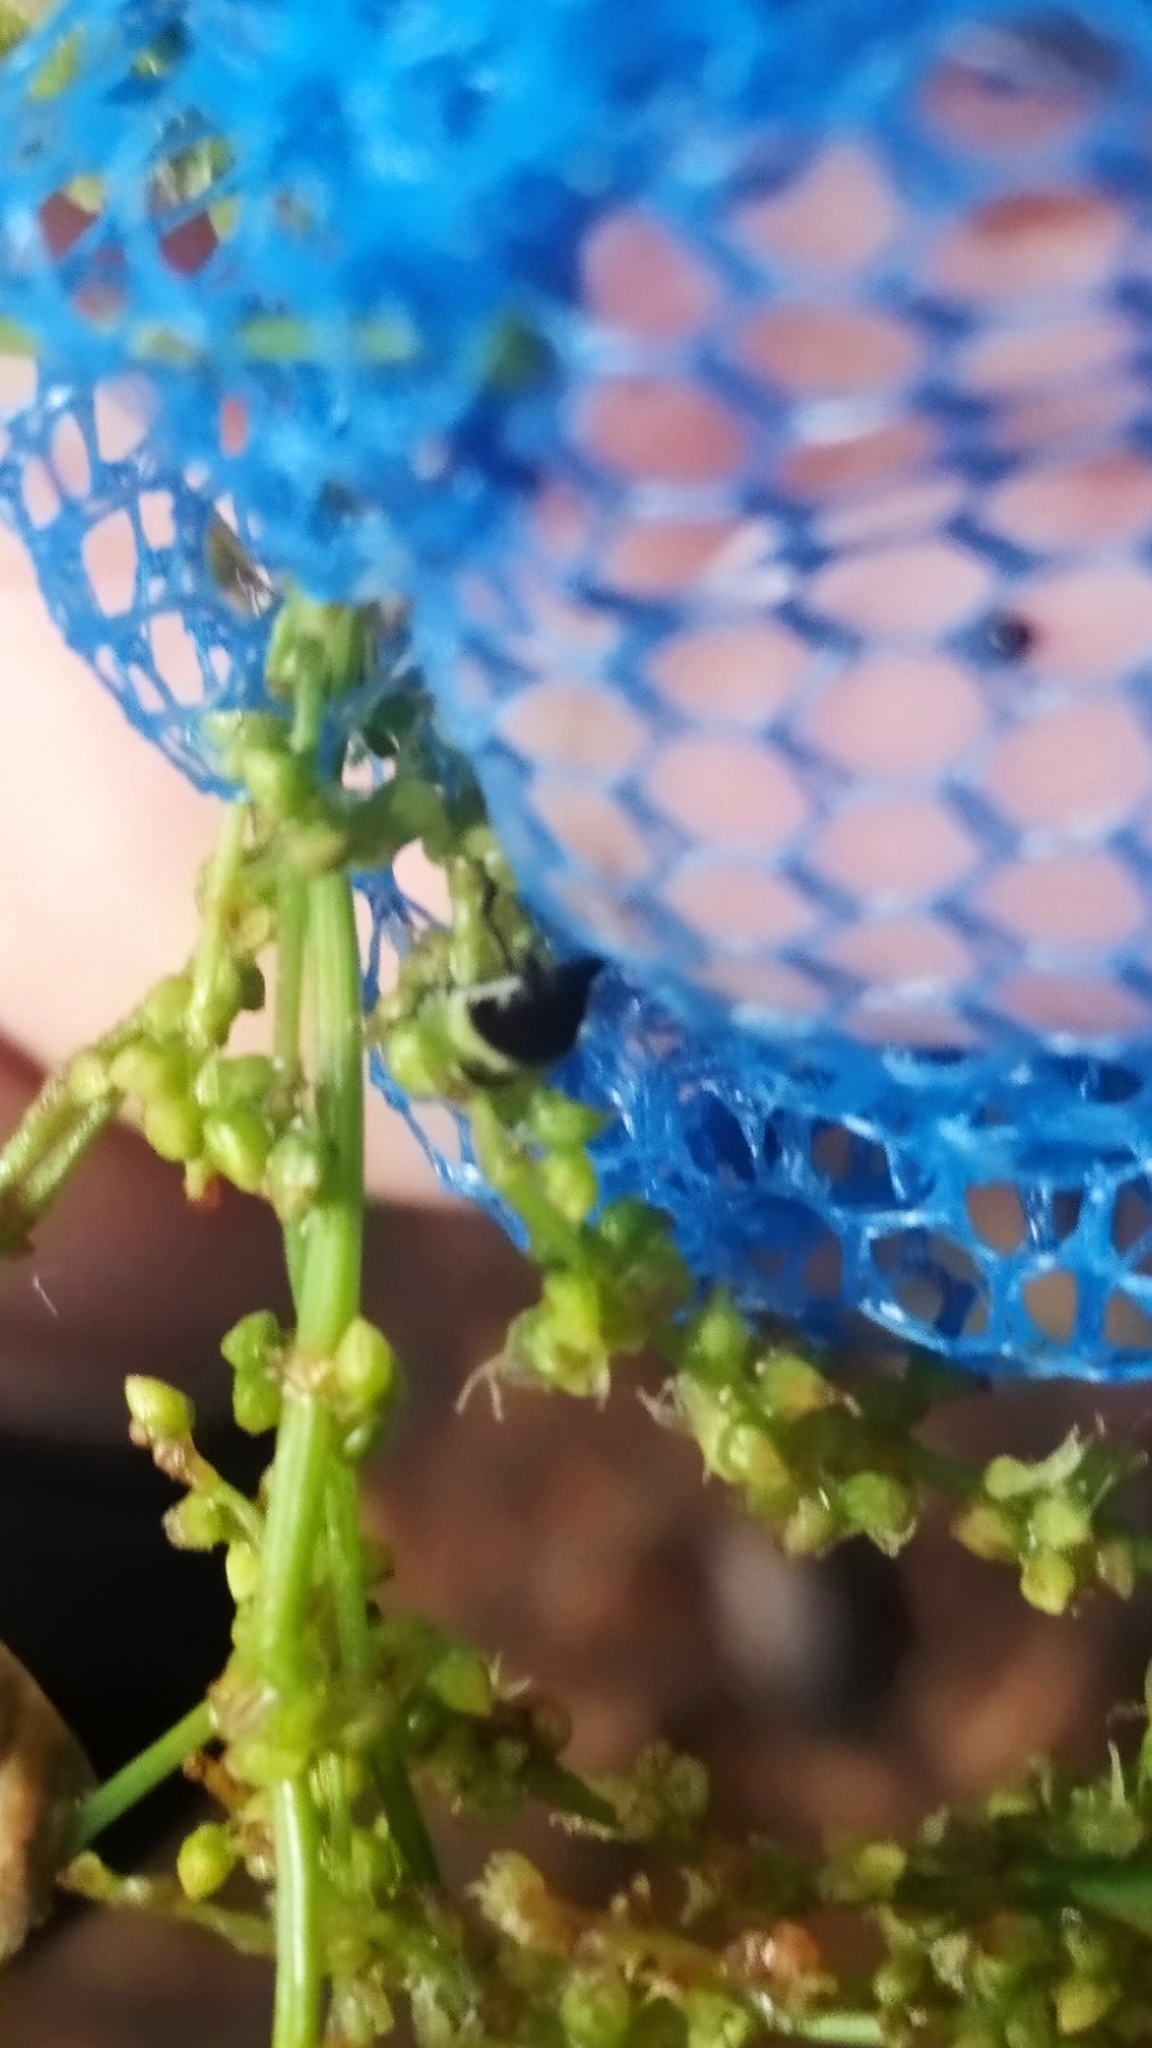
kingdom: Animalia
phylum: Arthropoda
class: Insecta
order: Hemiptera
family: Pentatomidae
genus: Palomena
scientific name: Palomena prasina
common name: Green shieldbug
